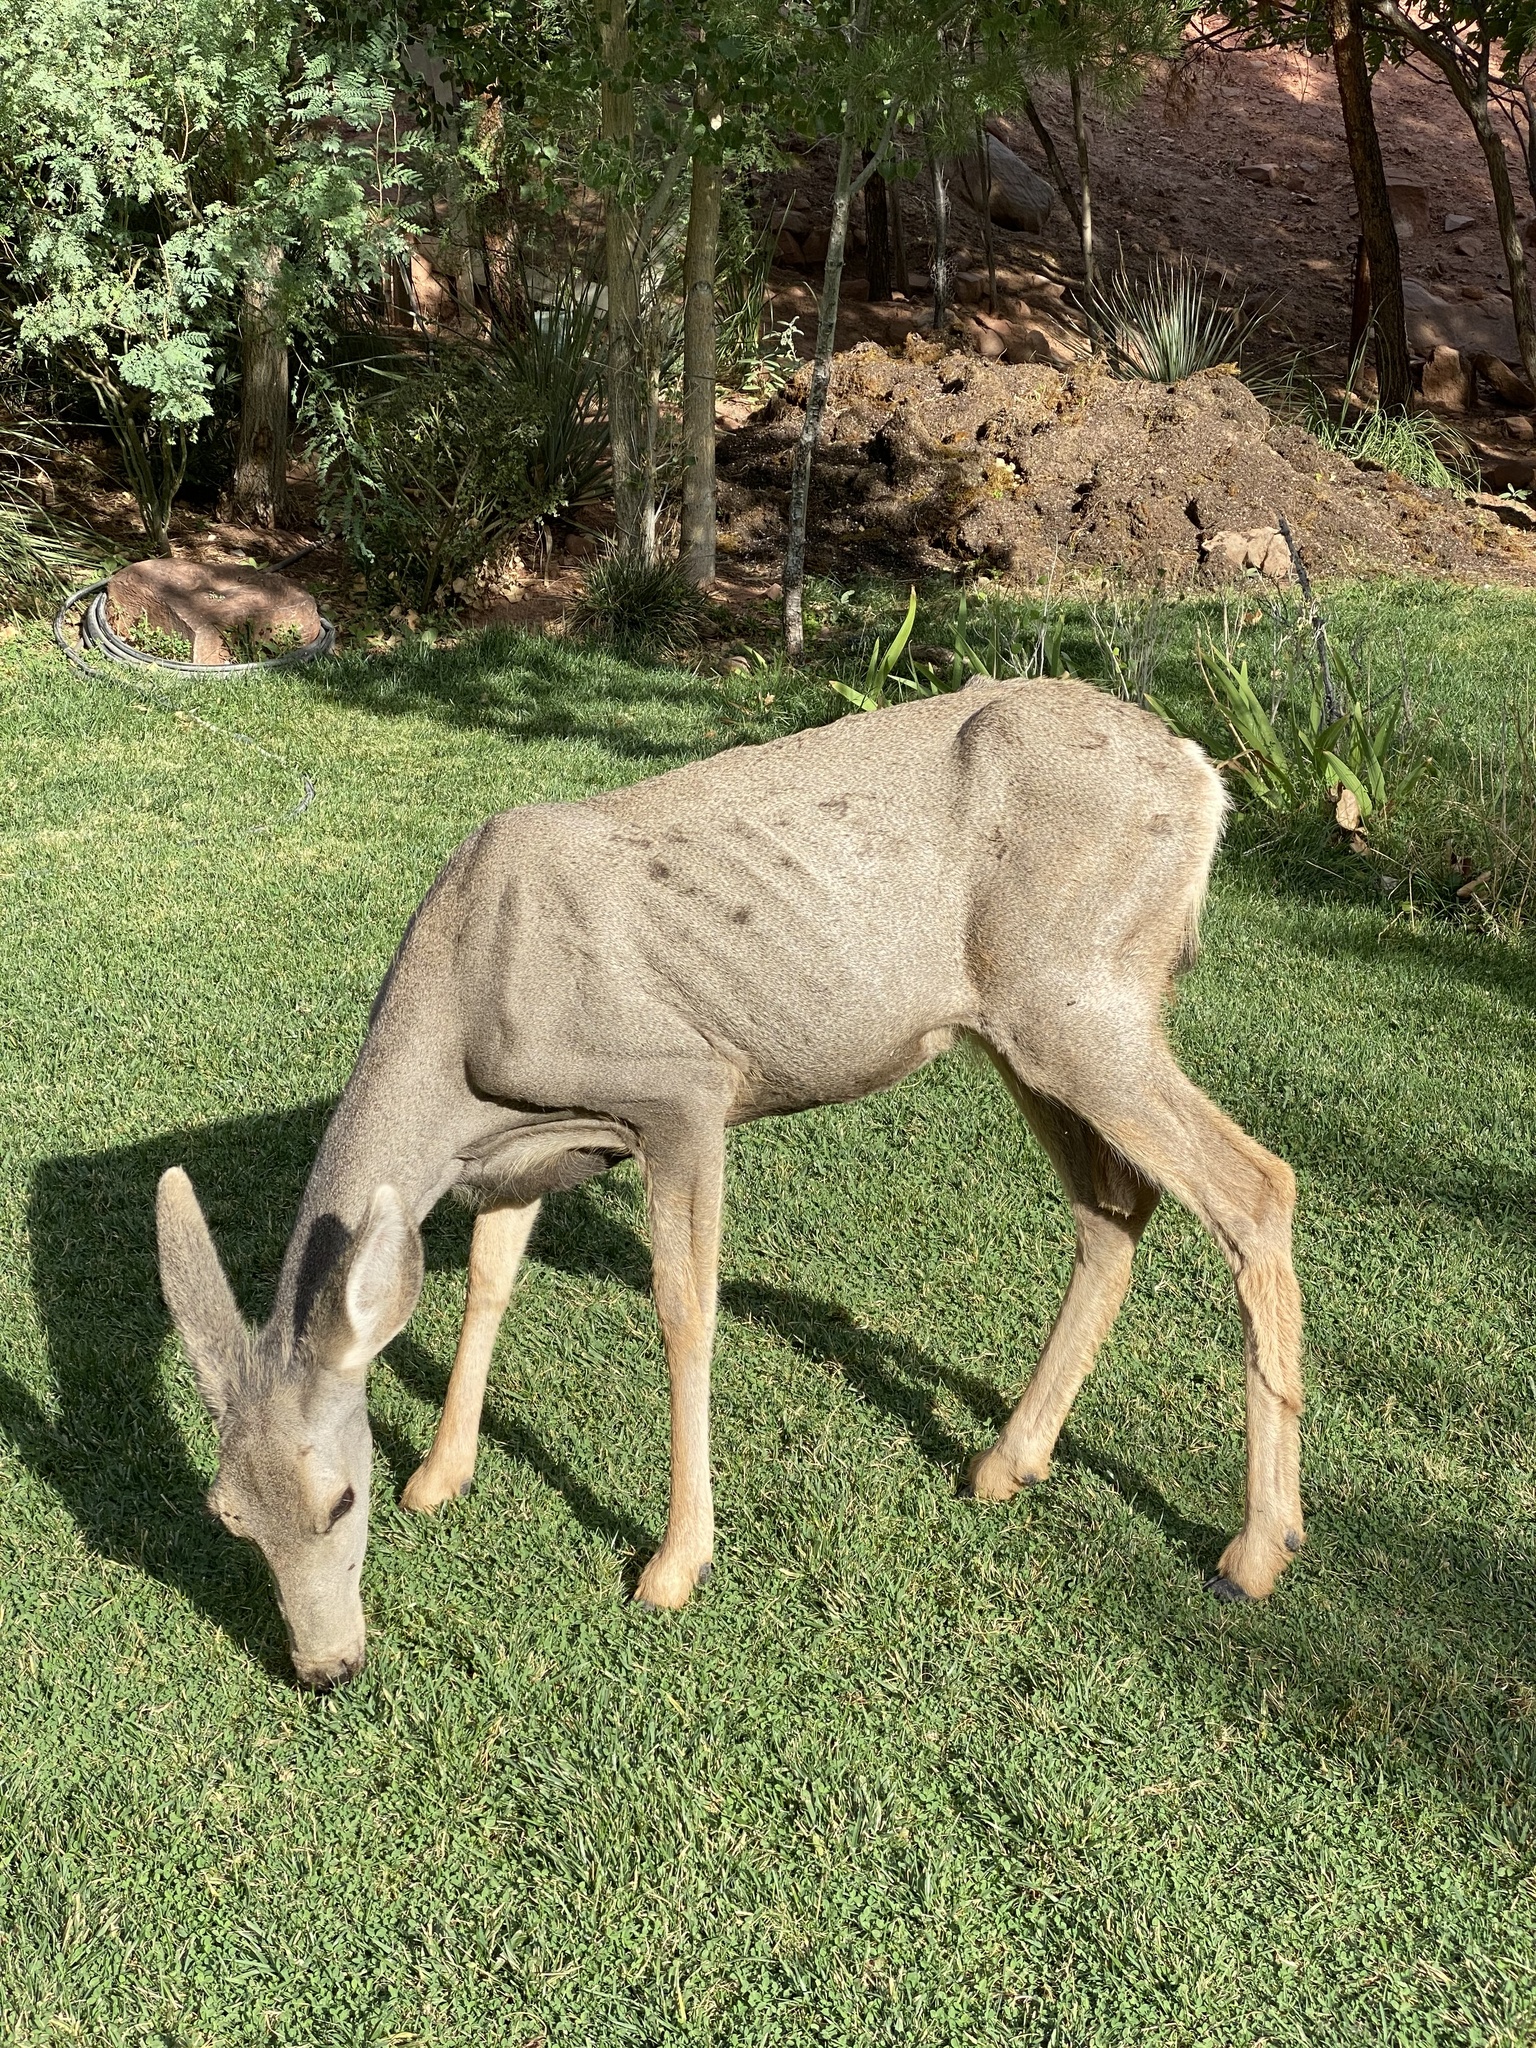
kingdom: Animalia
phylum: Chordata
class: Mammalia
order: Artiodactyla
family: Cervidae
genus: Odocoileus
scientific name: Odocoileus hemionus
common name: Mule deer
